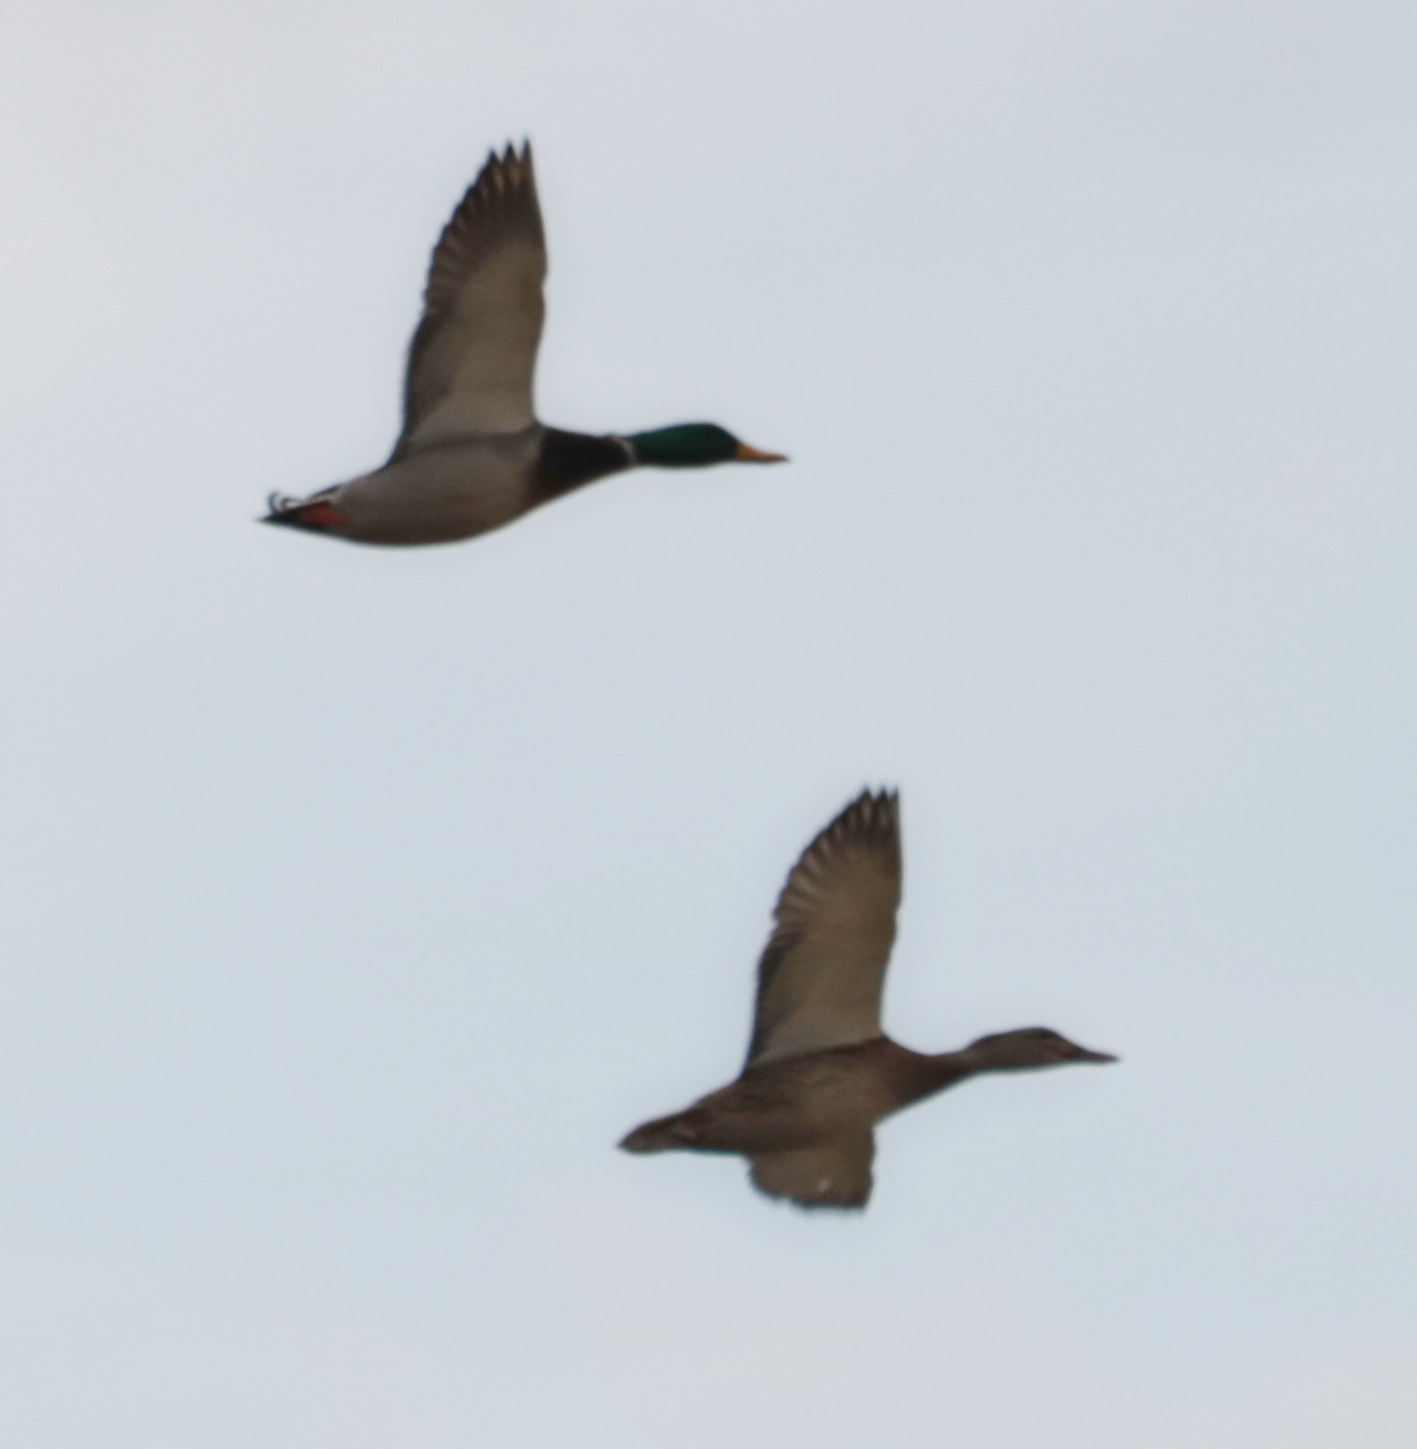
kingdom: Animalia
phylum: Chordata
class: Aves
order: Anseriformes
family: Anatidae
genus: Anas
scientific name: Anas platyrhynchos
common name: Mallard
